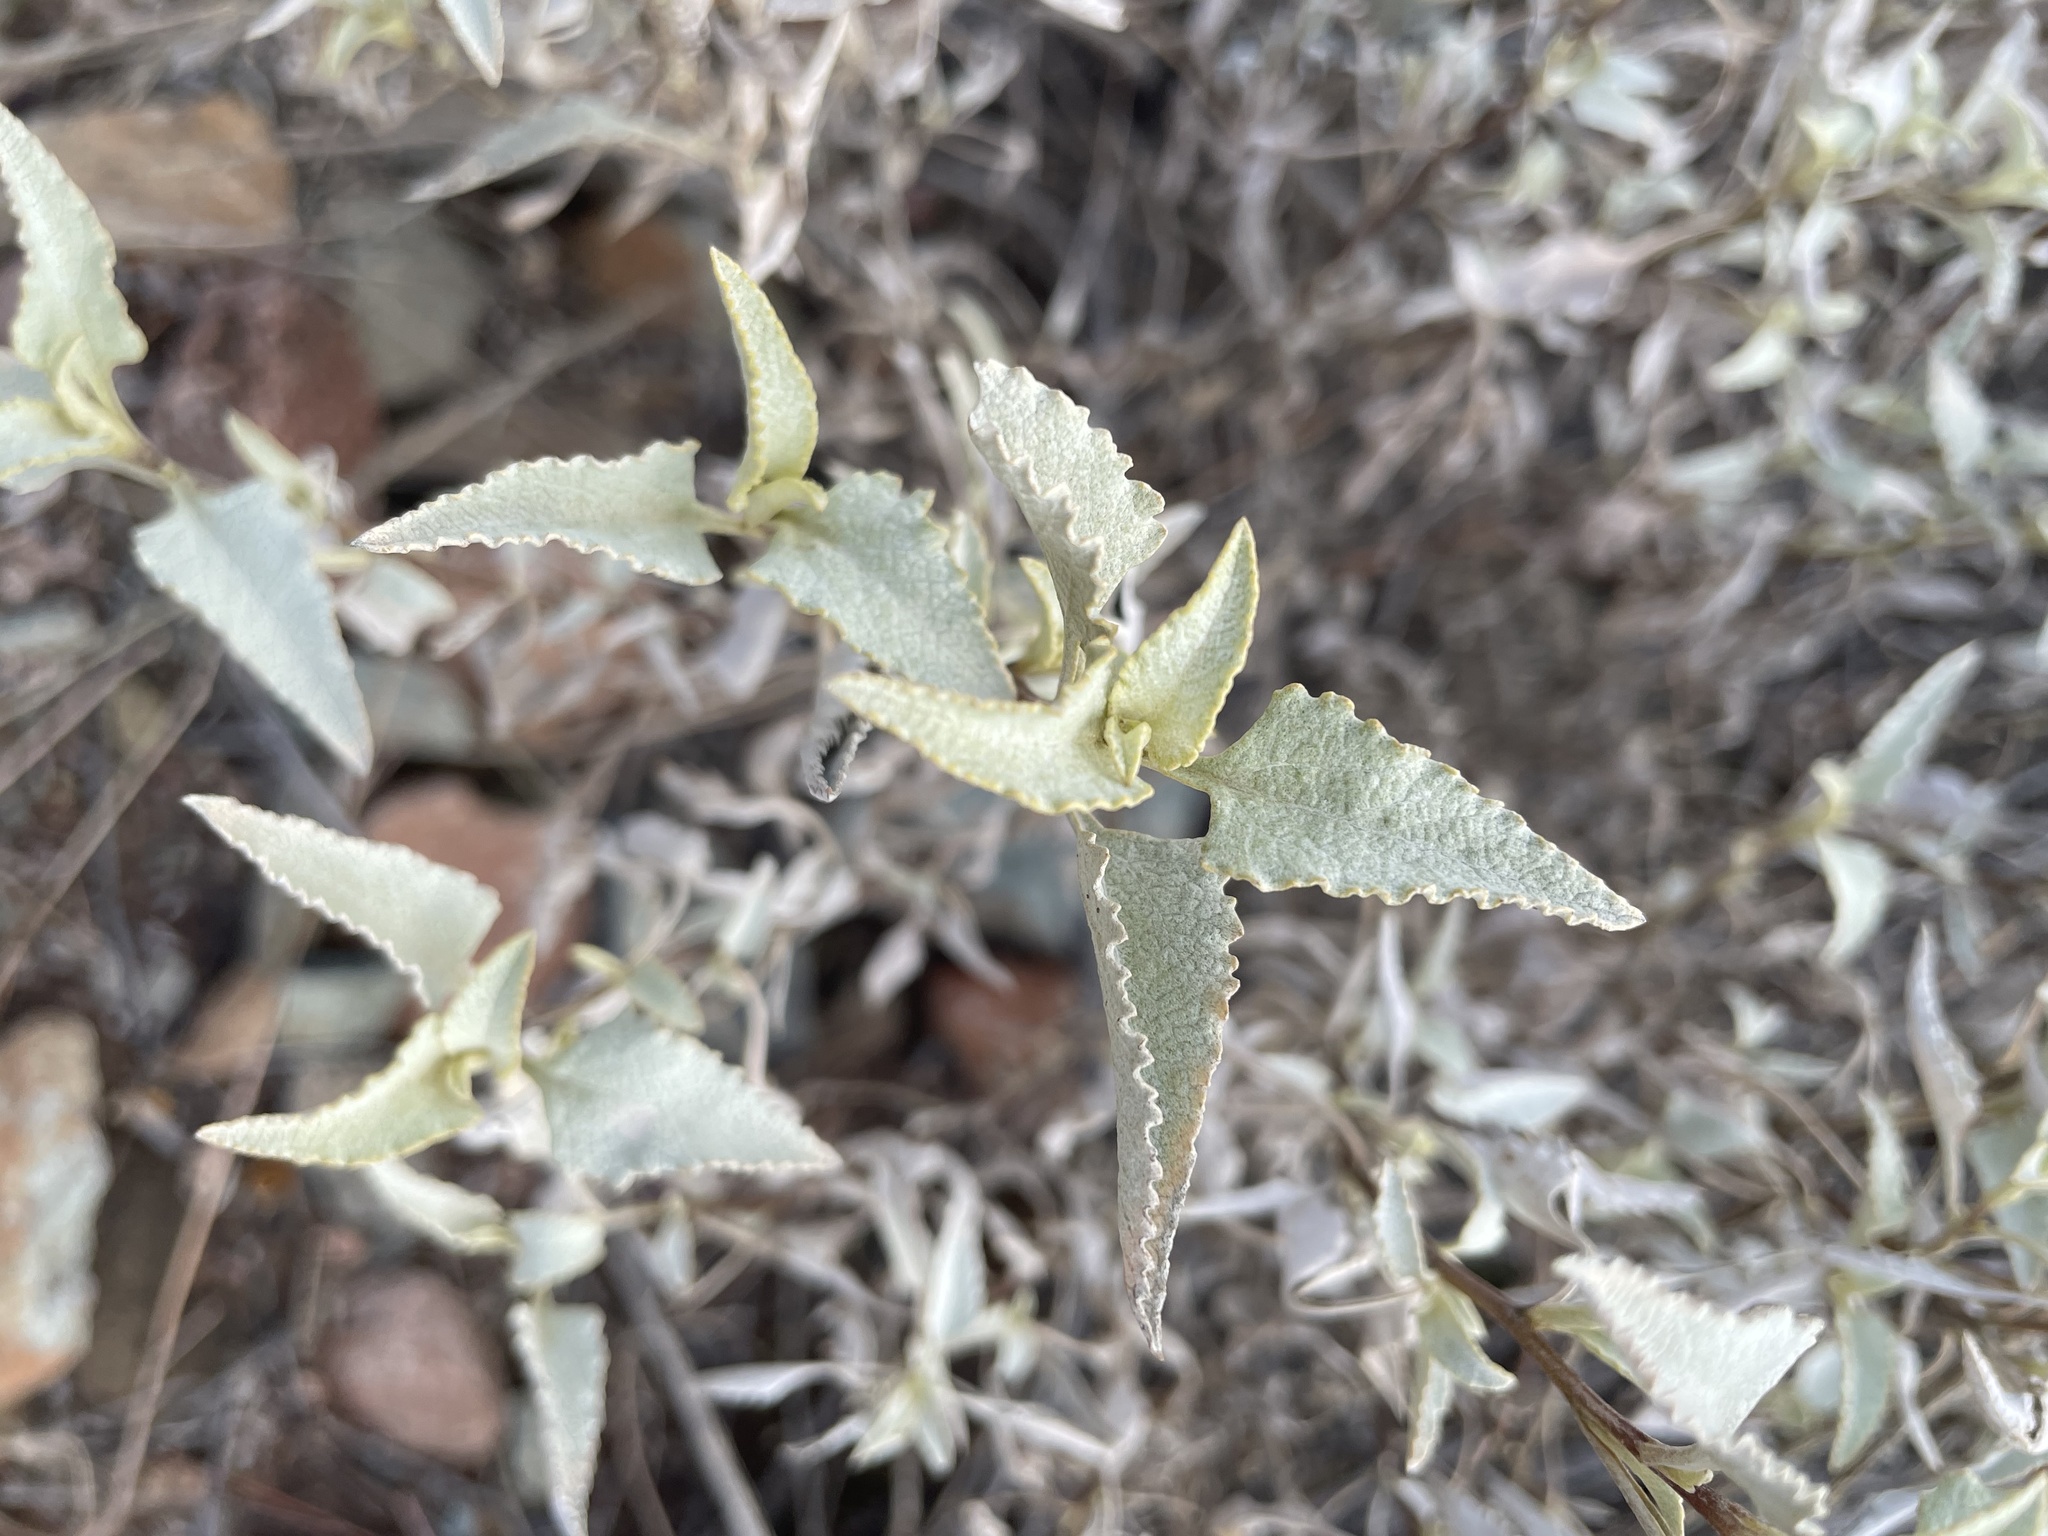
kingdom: Plantae
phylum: Tracheophyta
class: Magnoliopsida
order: Asterales
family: Asteraceae
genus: Ambrosia
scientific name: Ambrosia deltoidea
